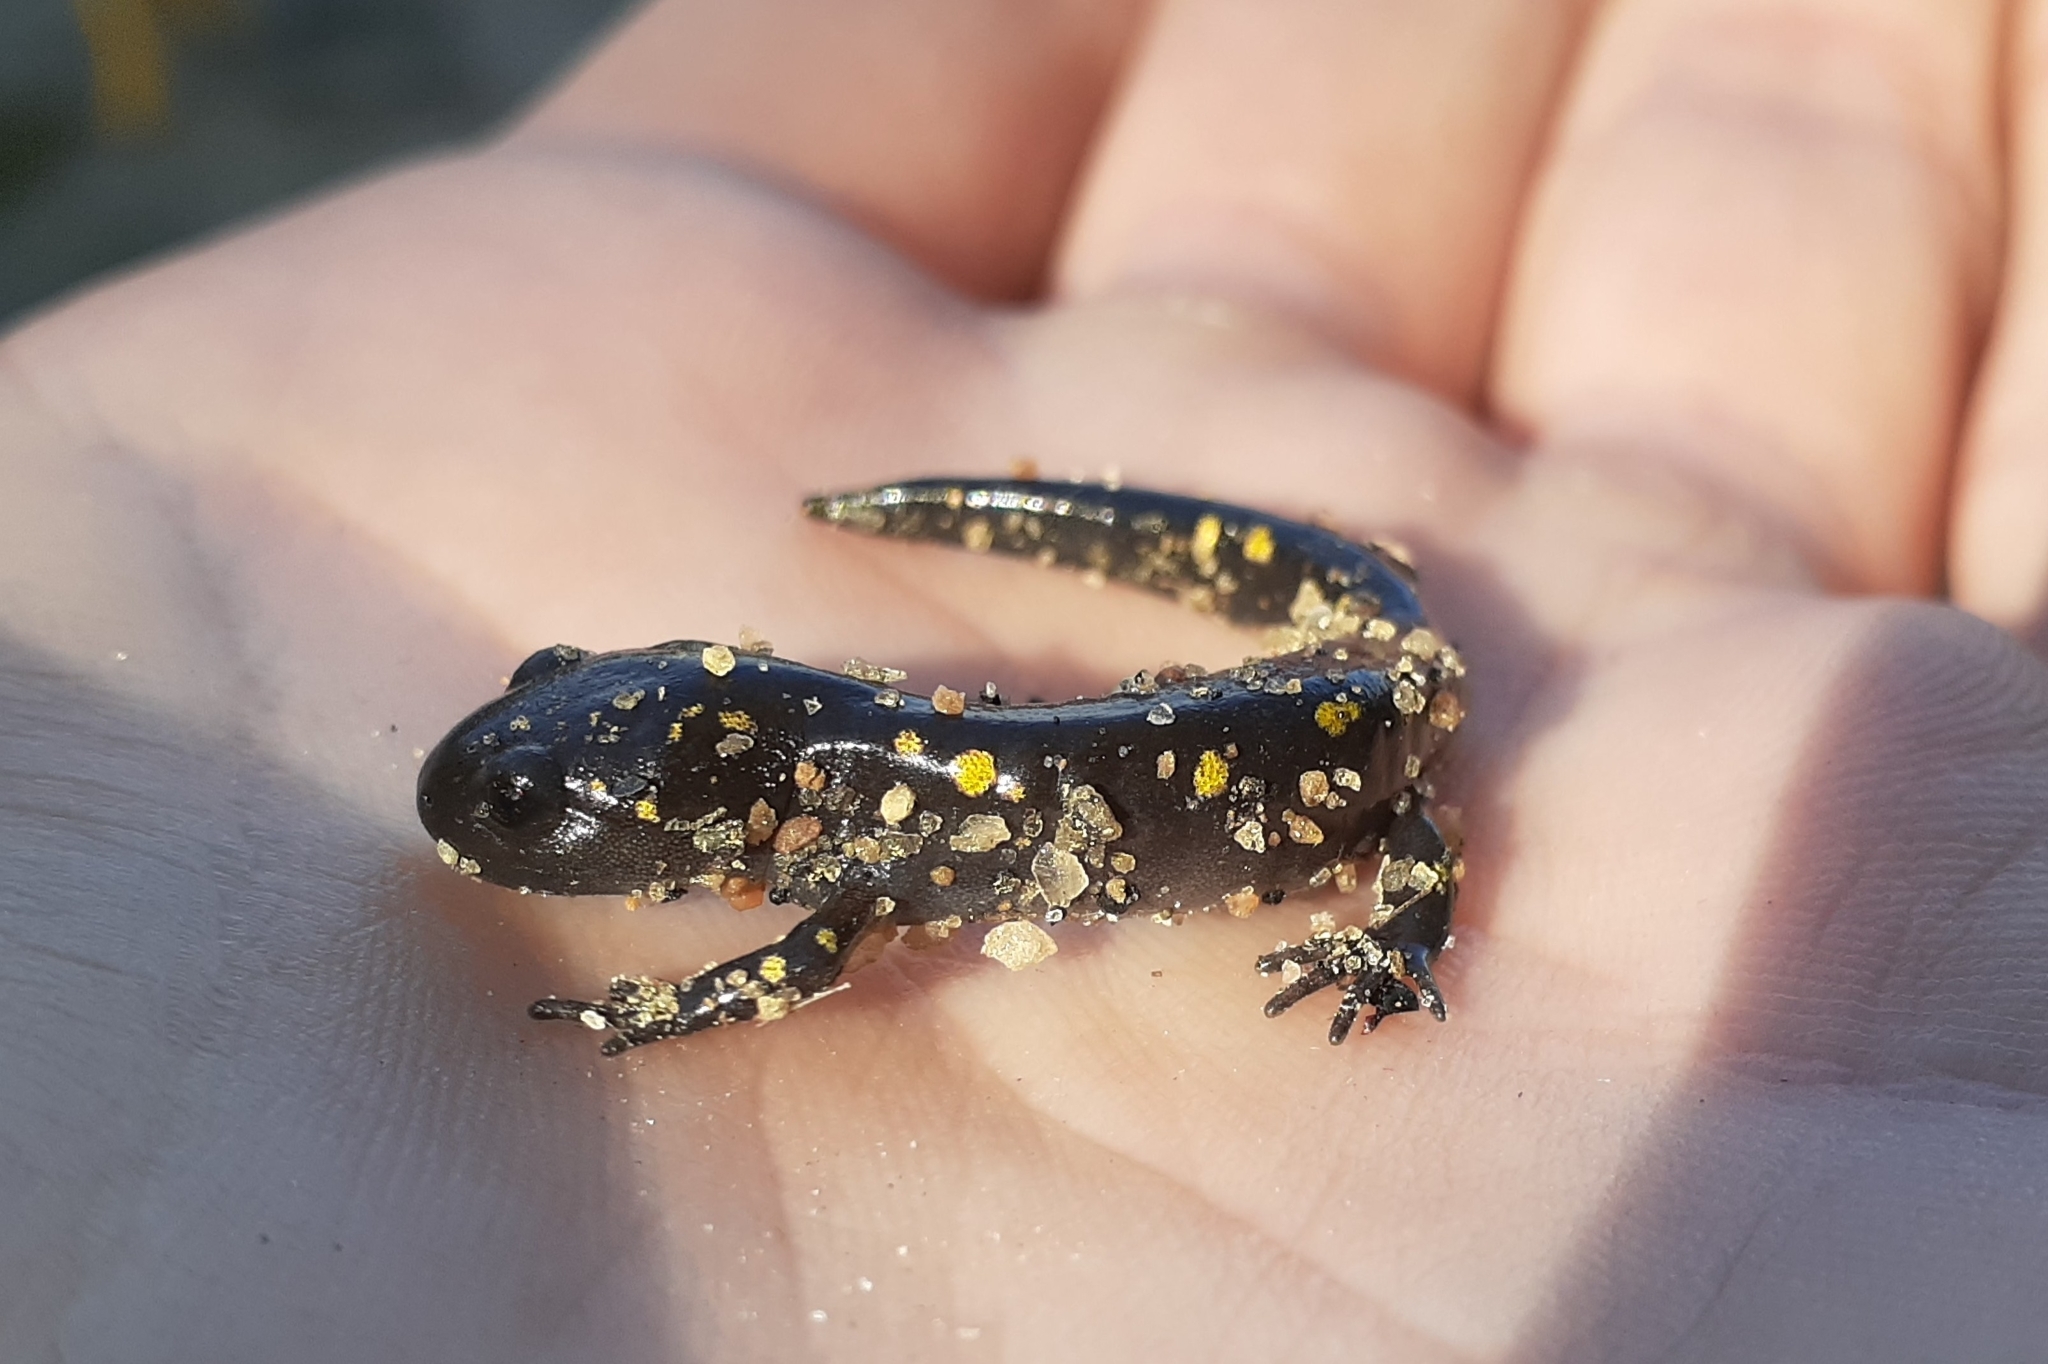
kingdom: Animalia
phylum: Chordata
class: Amphibia
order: Caudata
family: Ambystomatidae
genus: Ambystoma
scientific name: Ambystoma maculatum
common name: Spotted salamander
